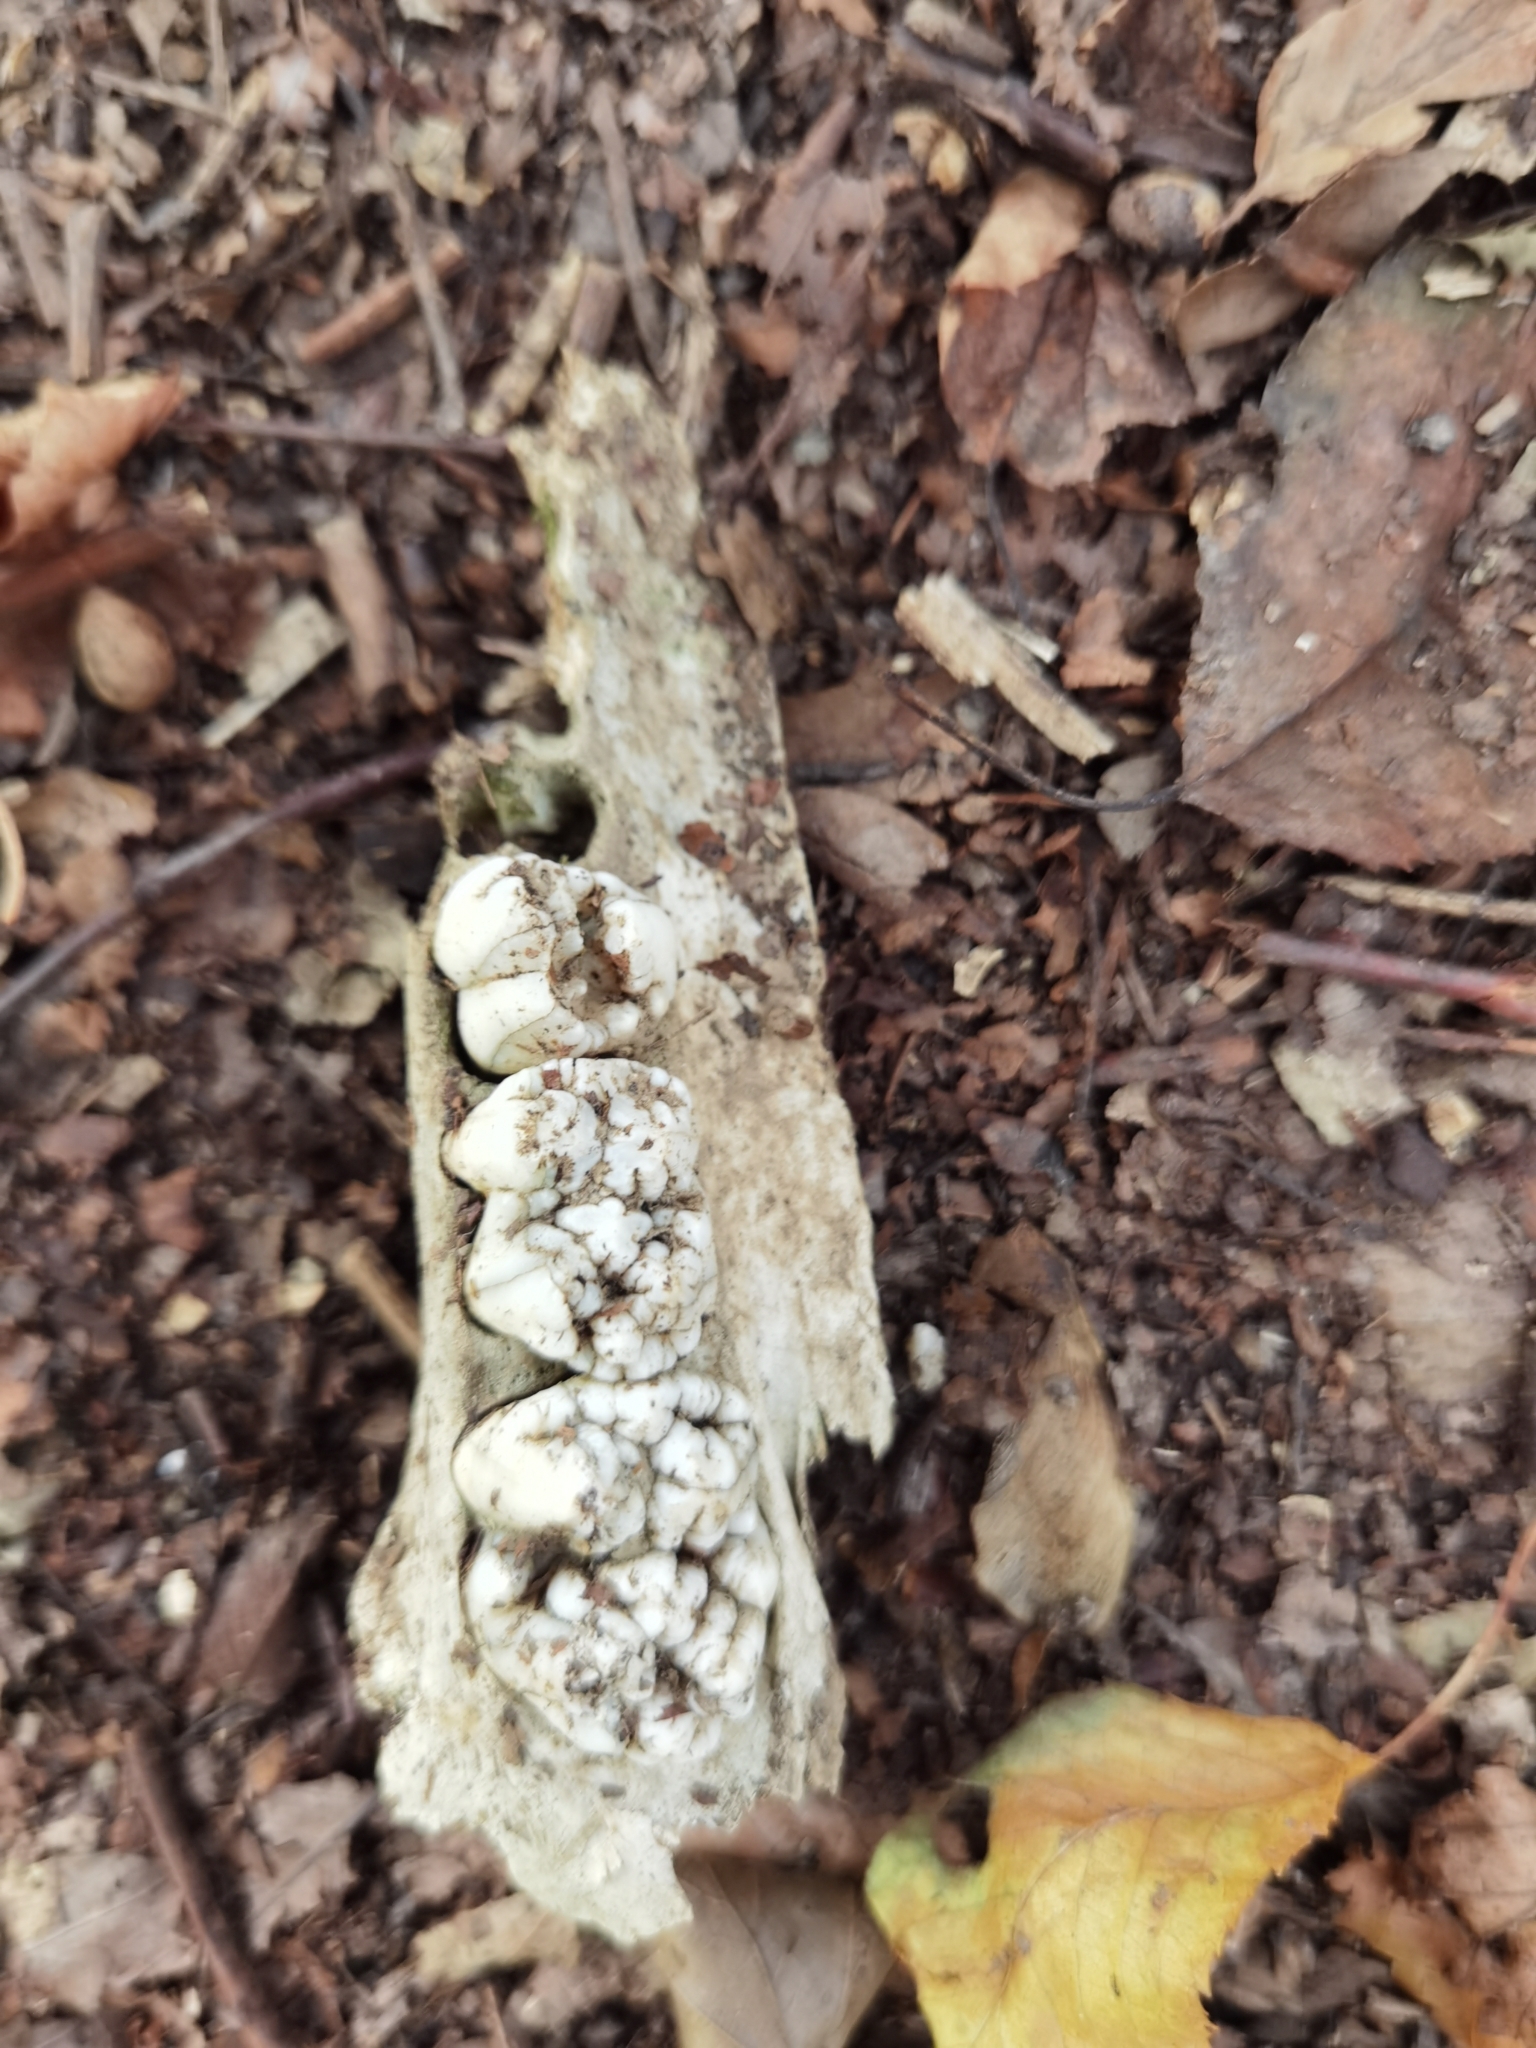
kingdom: Animalia
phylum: Chordata
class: Mammalia
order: Artiodactyla
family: Suidae
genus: Sus
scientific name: Sus scrofa
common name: Wild boar
